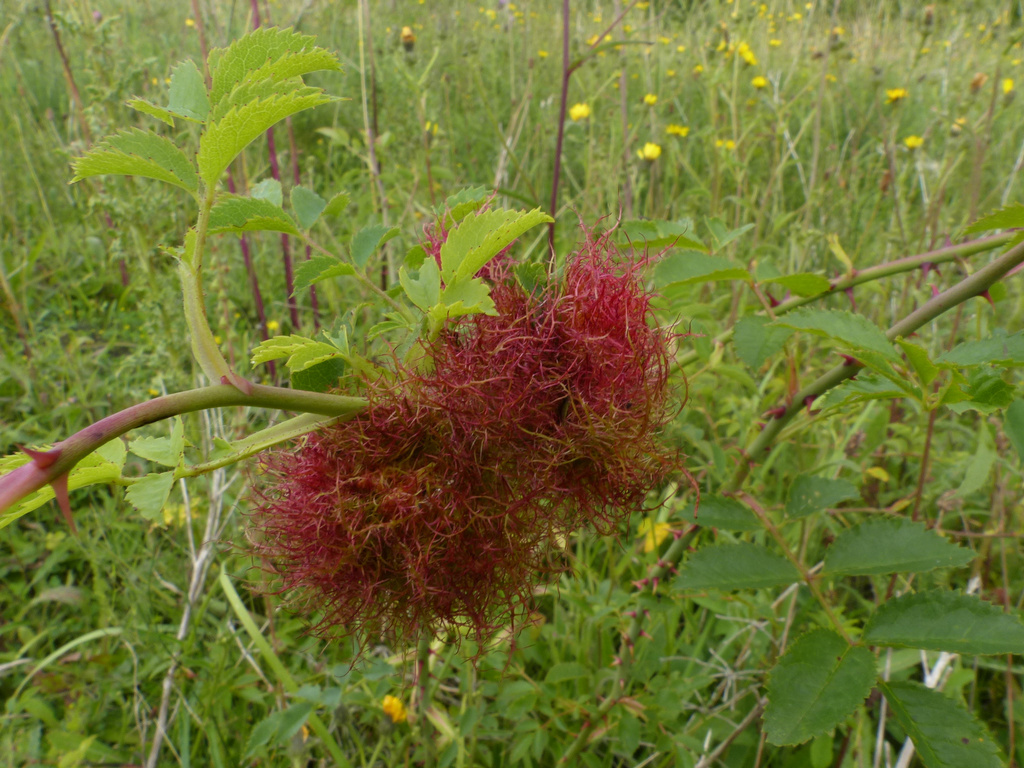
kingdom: Animalia
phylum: Arthropoda
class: Insecta
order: Hymenoptera
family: Cynipidae
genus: Diplolepis
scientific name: Diplolepis rosae
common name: Bedeguar gall
